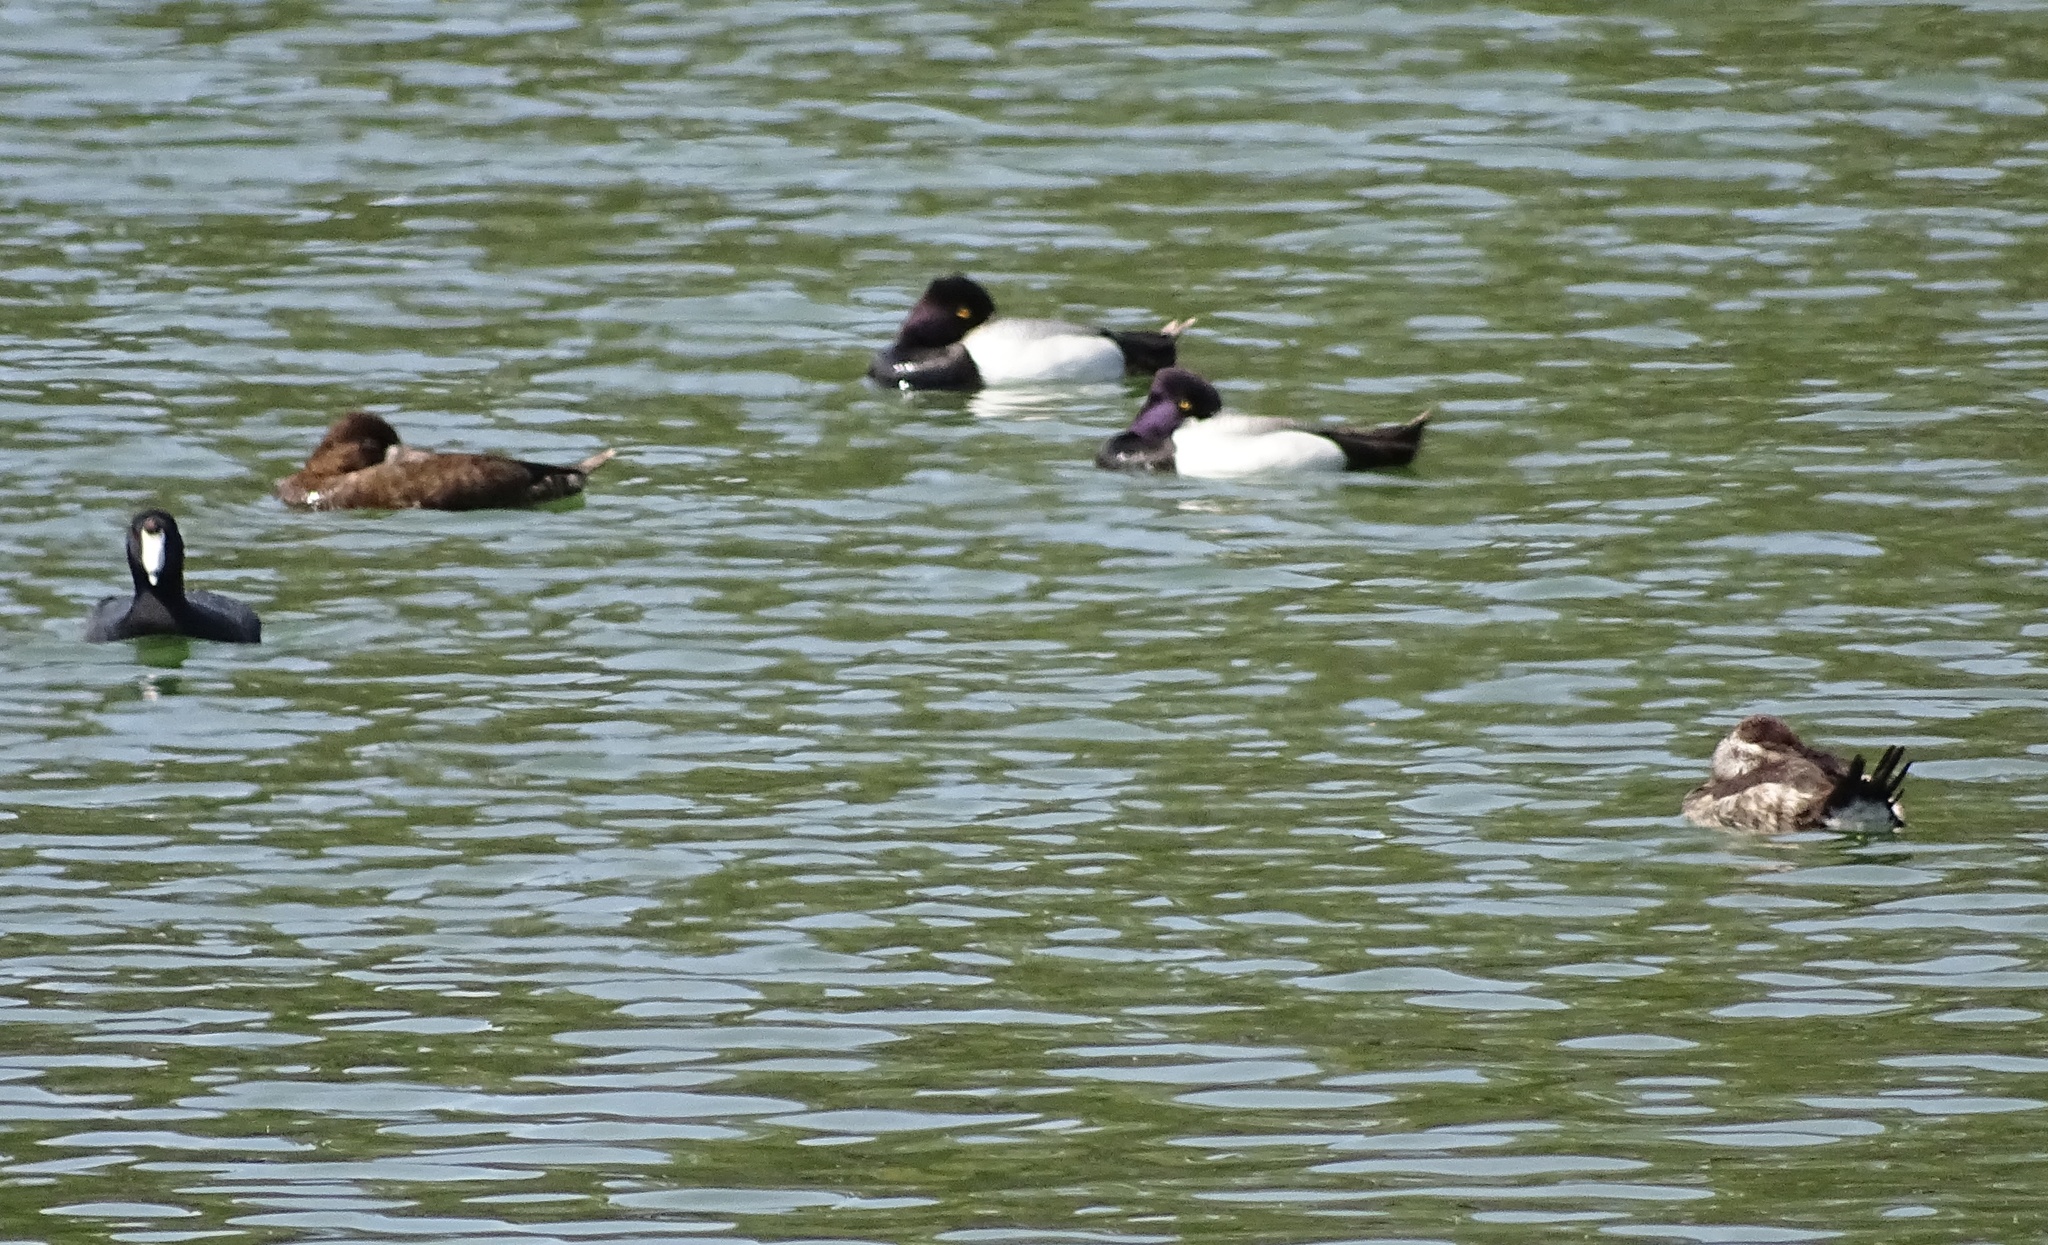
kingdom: Animalia
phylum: Chordata
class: Aves
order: Anseriformes
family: Anatidae
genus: Aythya
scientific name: Aythya affinis
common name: Lesser scaup
